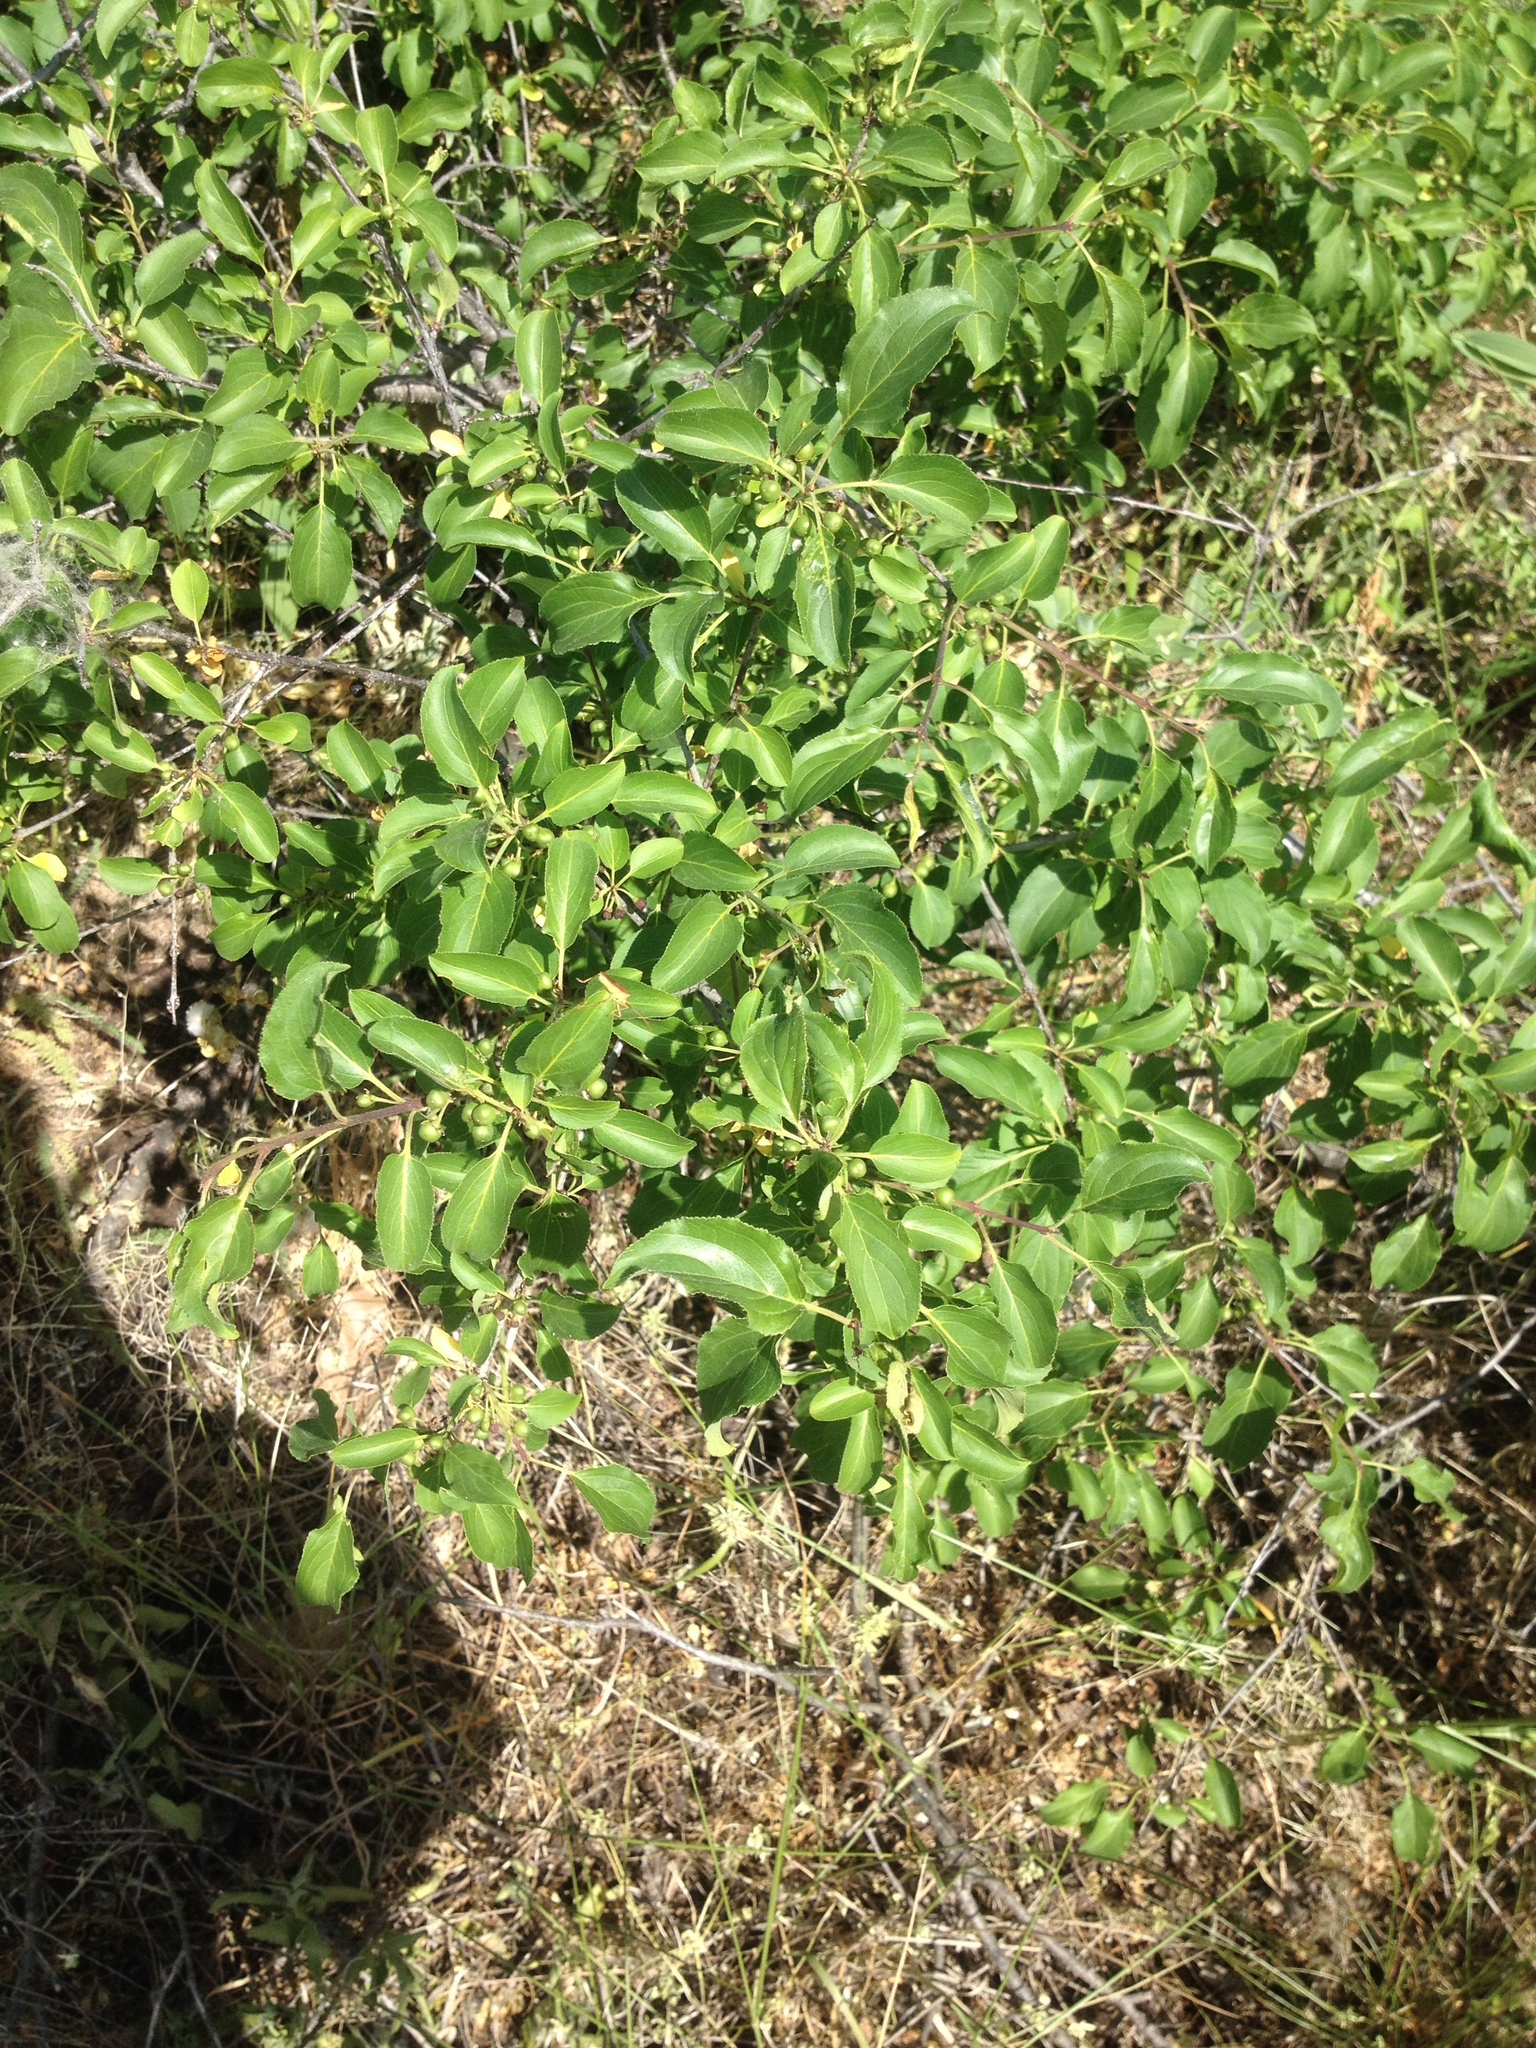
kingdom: Plantae
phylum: Tracheophyta
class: Magnoliopsida
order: Rosales
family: Rhamnaceae
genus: Rhamnus
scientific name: Rhamnus cathartica
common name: Common buckthorn
